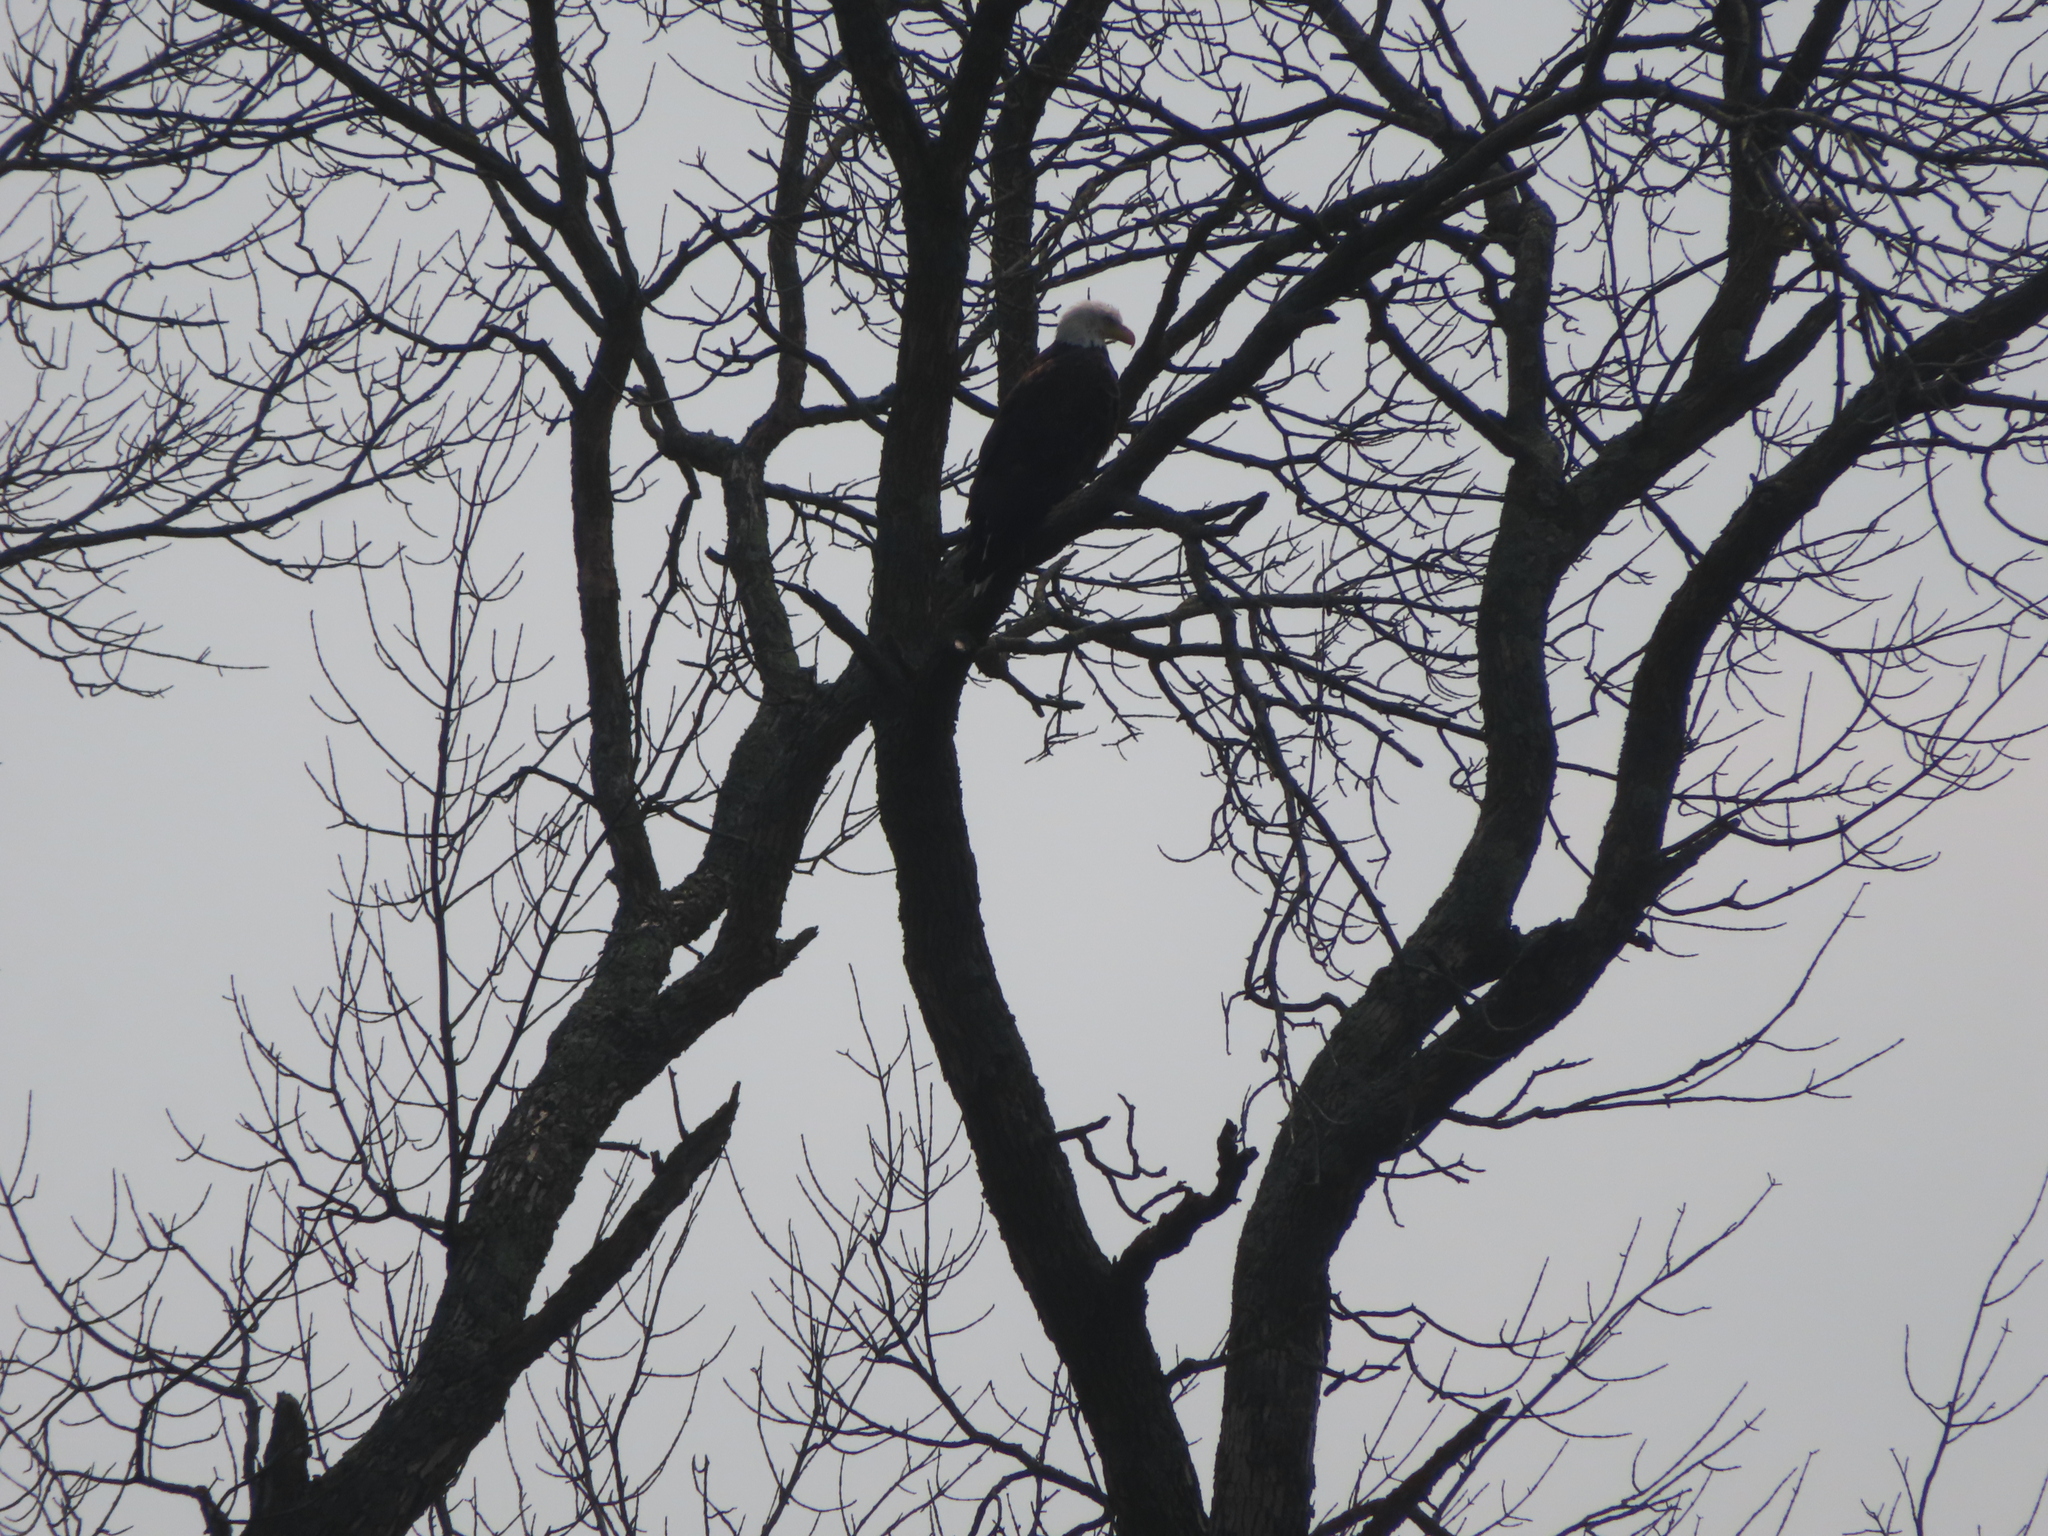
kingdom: Animalia
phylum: Chordata
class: Aves
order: Accipitriformes
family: Accipitridae
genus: Haliaeetus
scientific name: Haliaeetus leucocephalus
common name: Bald eagle
